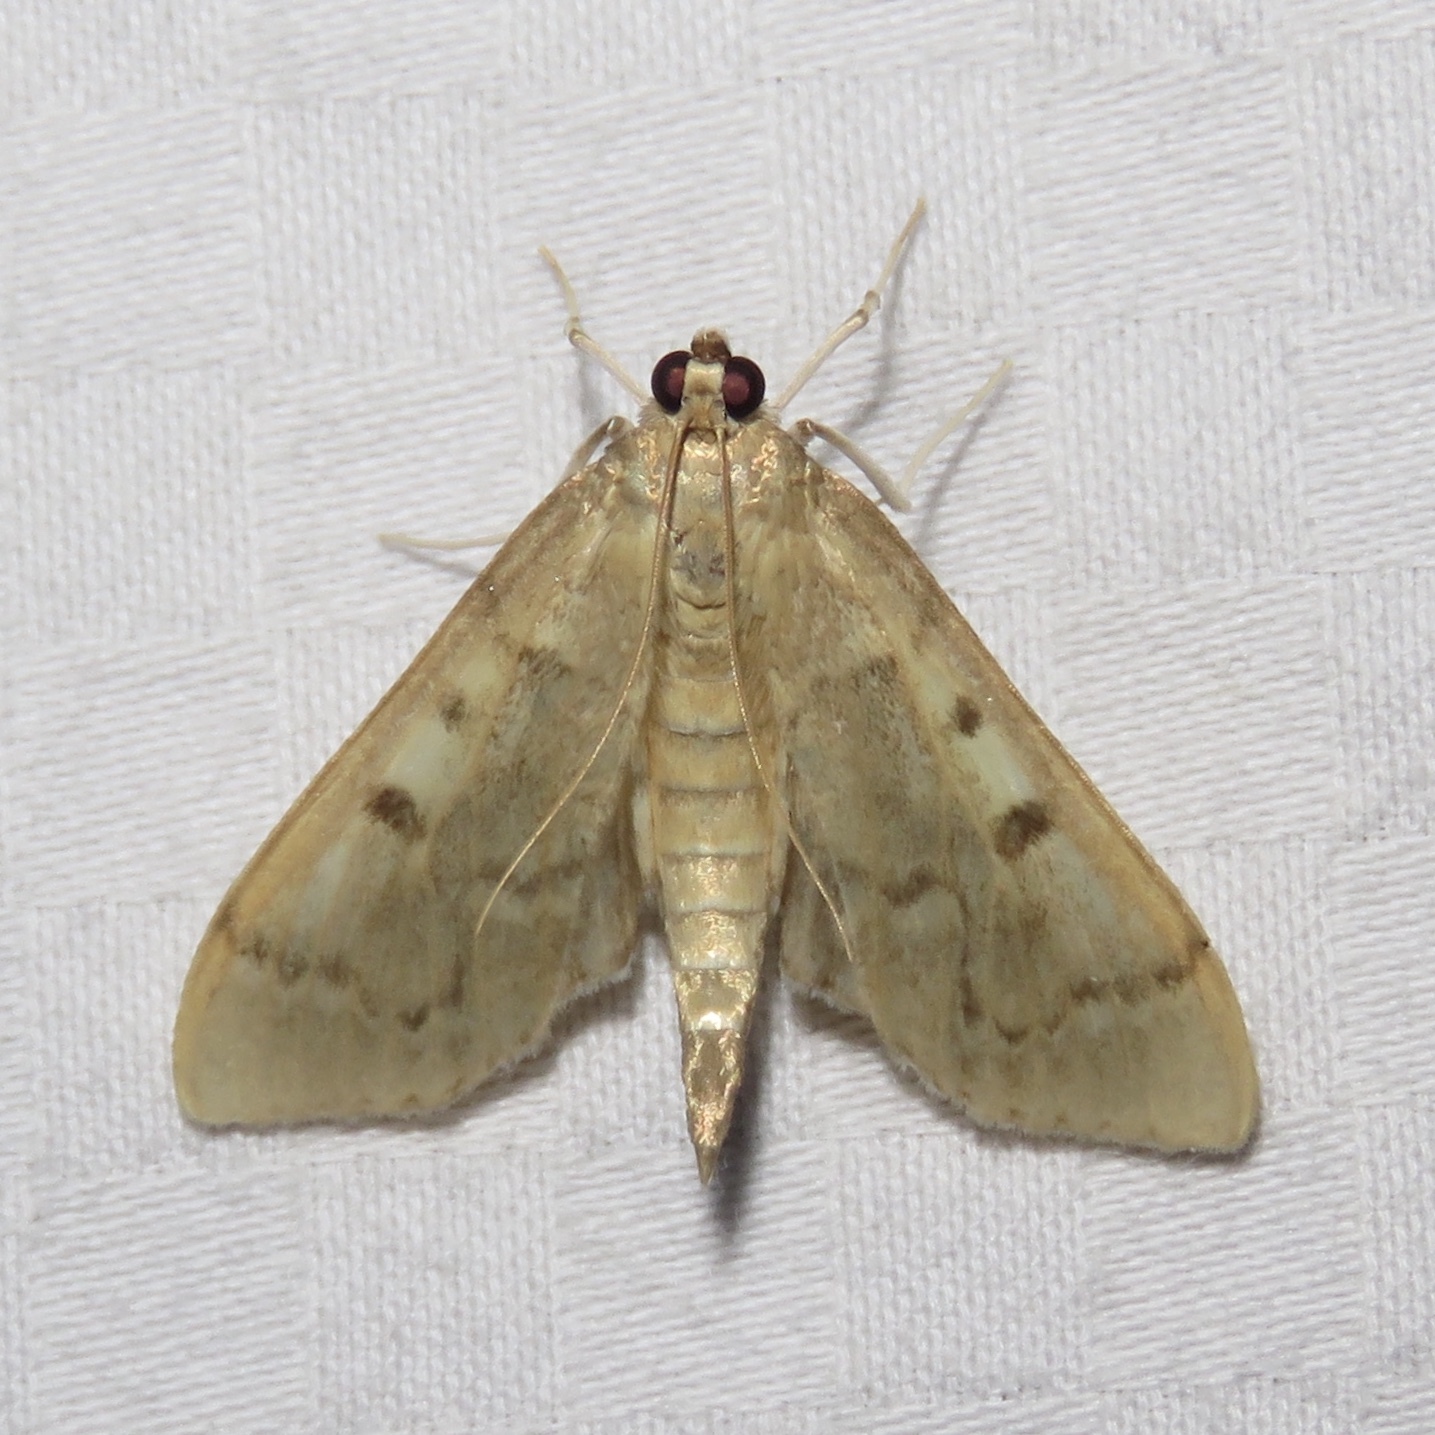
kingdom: Animalia
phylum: Arthropoda
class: Insecta
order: Lepidoptera
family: Crambidae
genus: Herpetogramma
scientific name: Herpetogramma aeglealis
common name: Serpentine webworm moth
